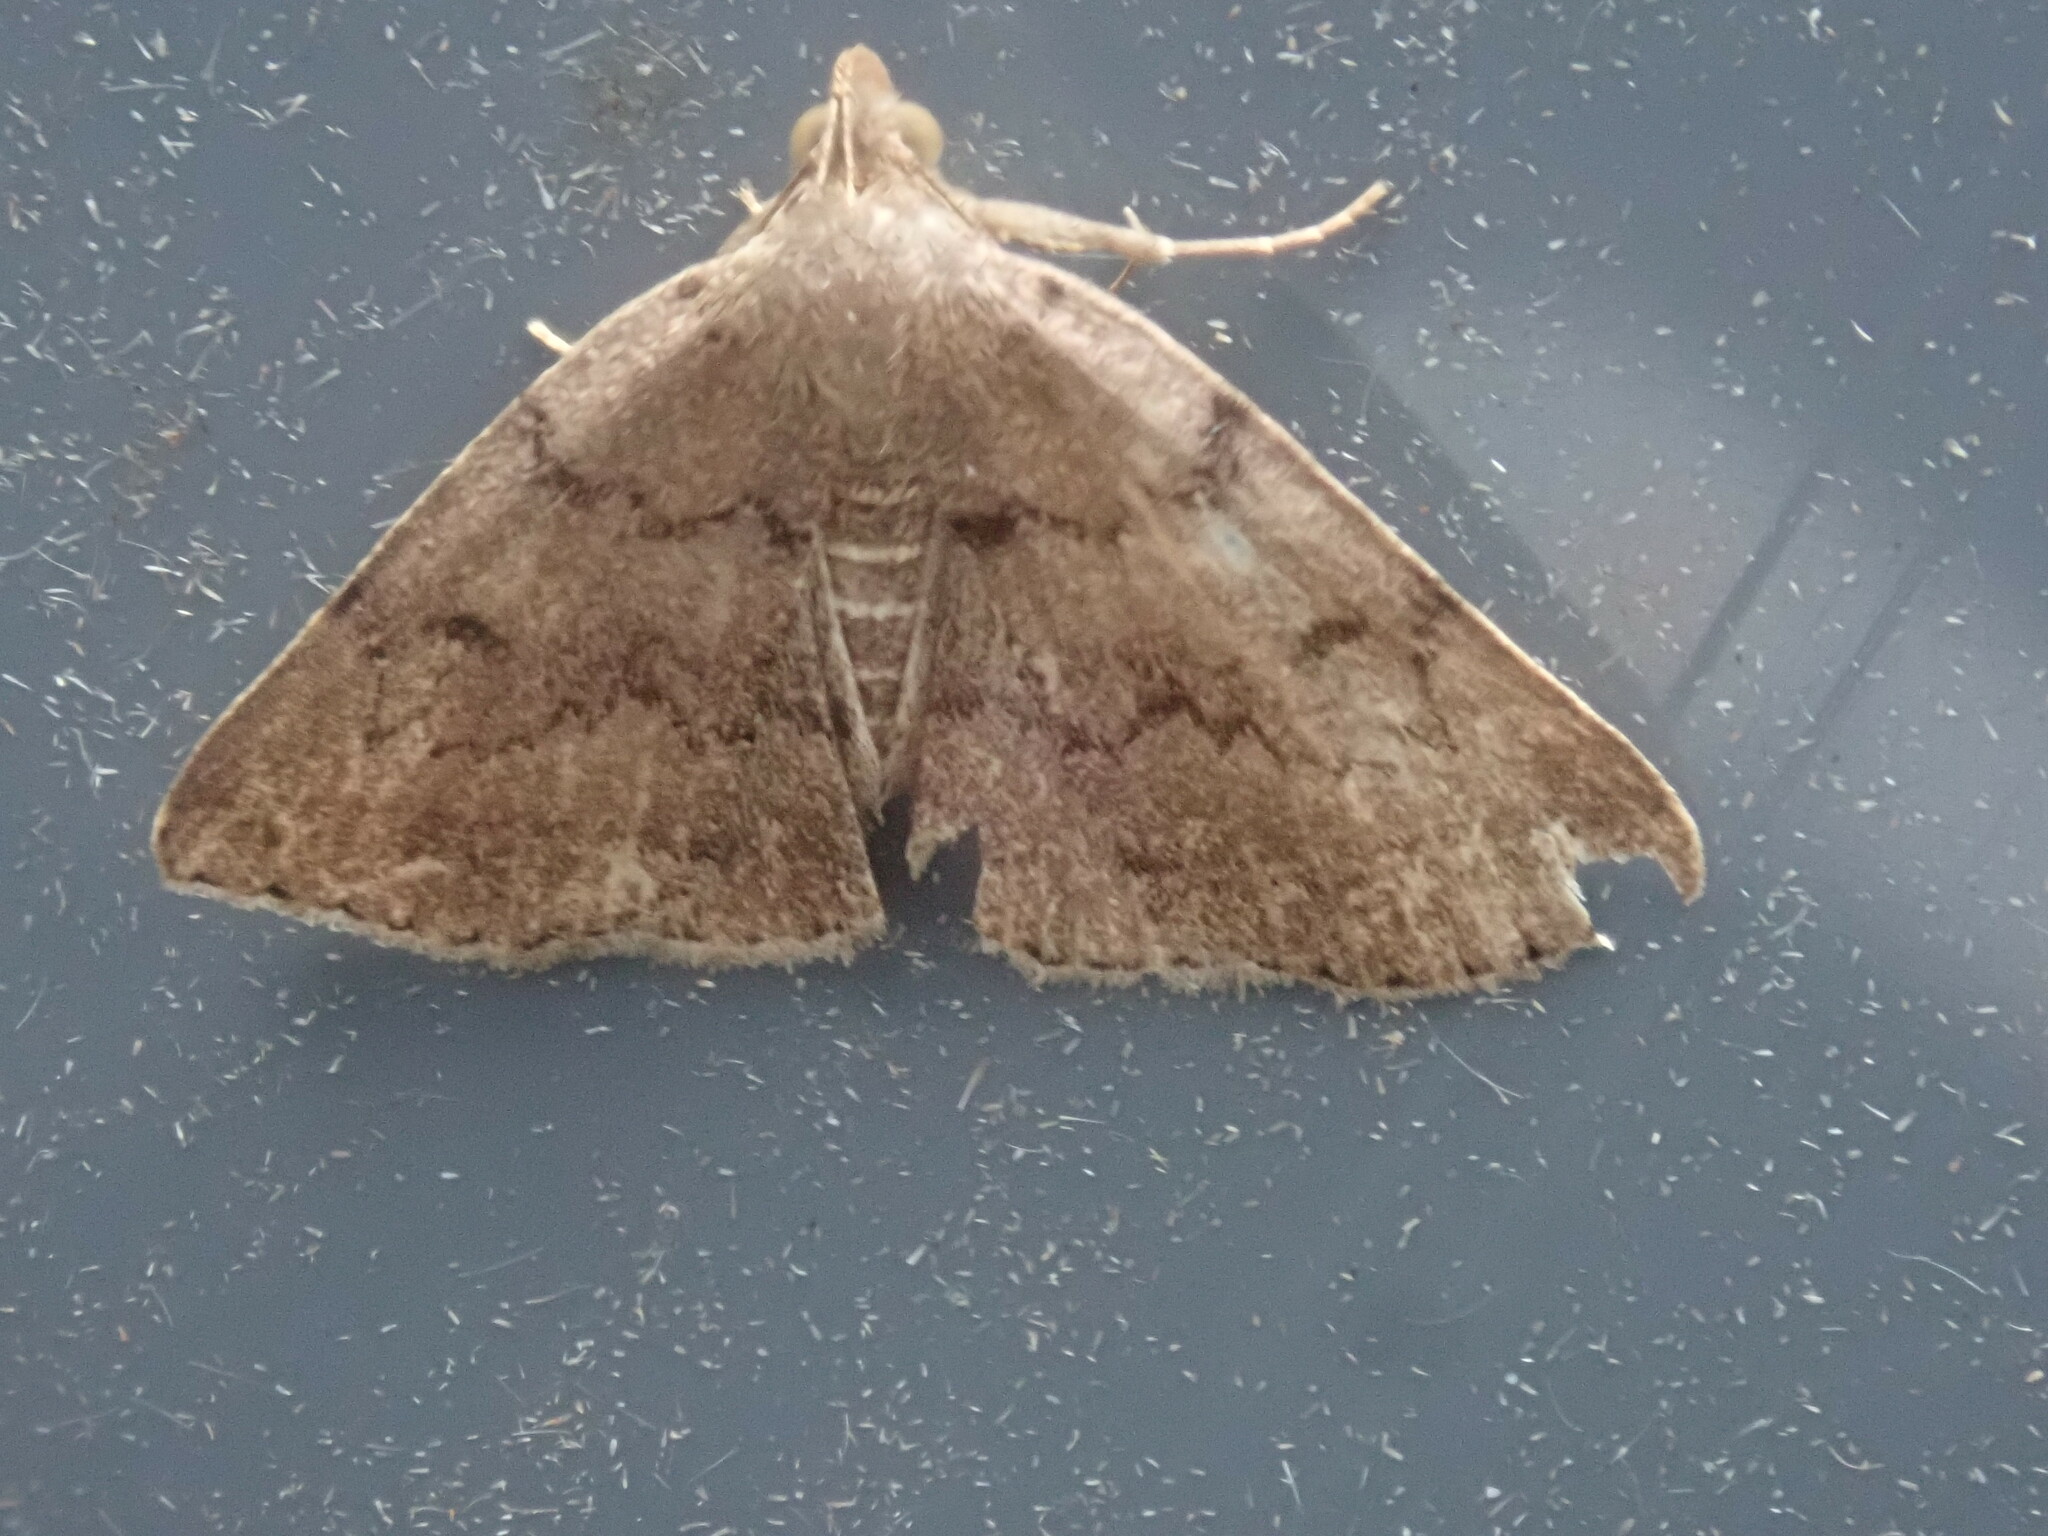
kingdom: Animalia
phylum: Arthropoda
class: Insecta
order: Lepidoptera
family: Erebidae
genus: Zanclognatha
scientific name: Zanclognatha dentata
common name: Toothed fan-foot
